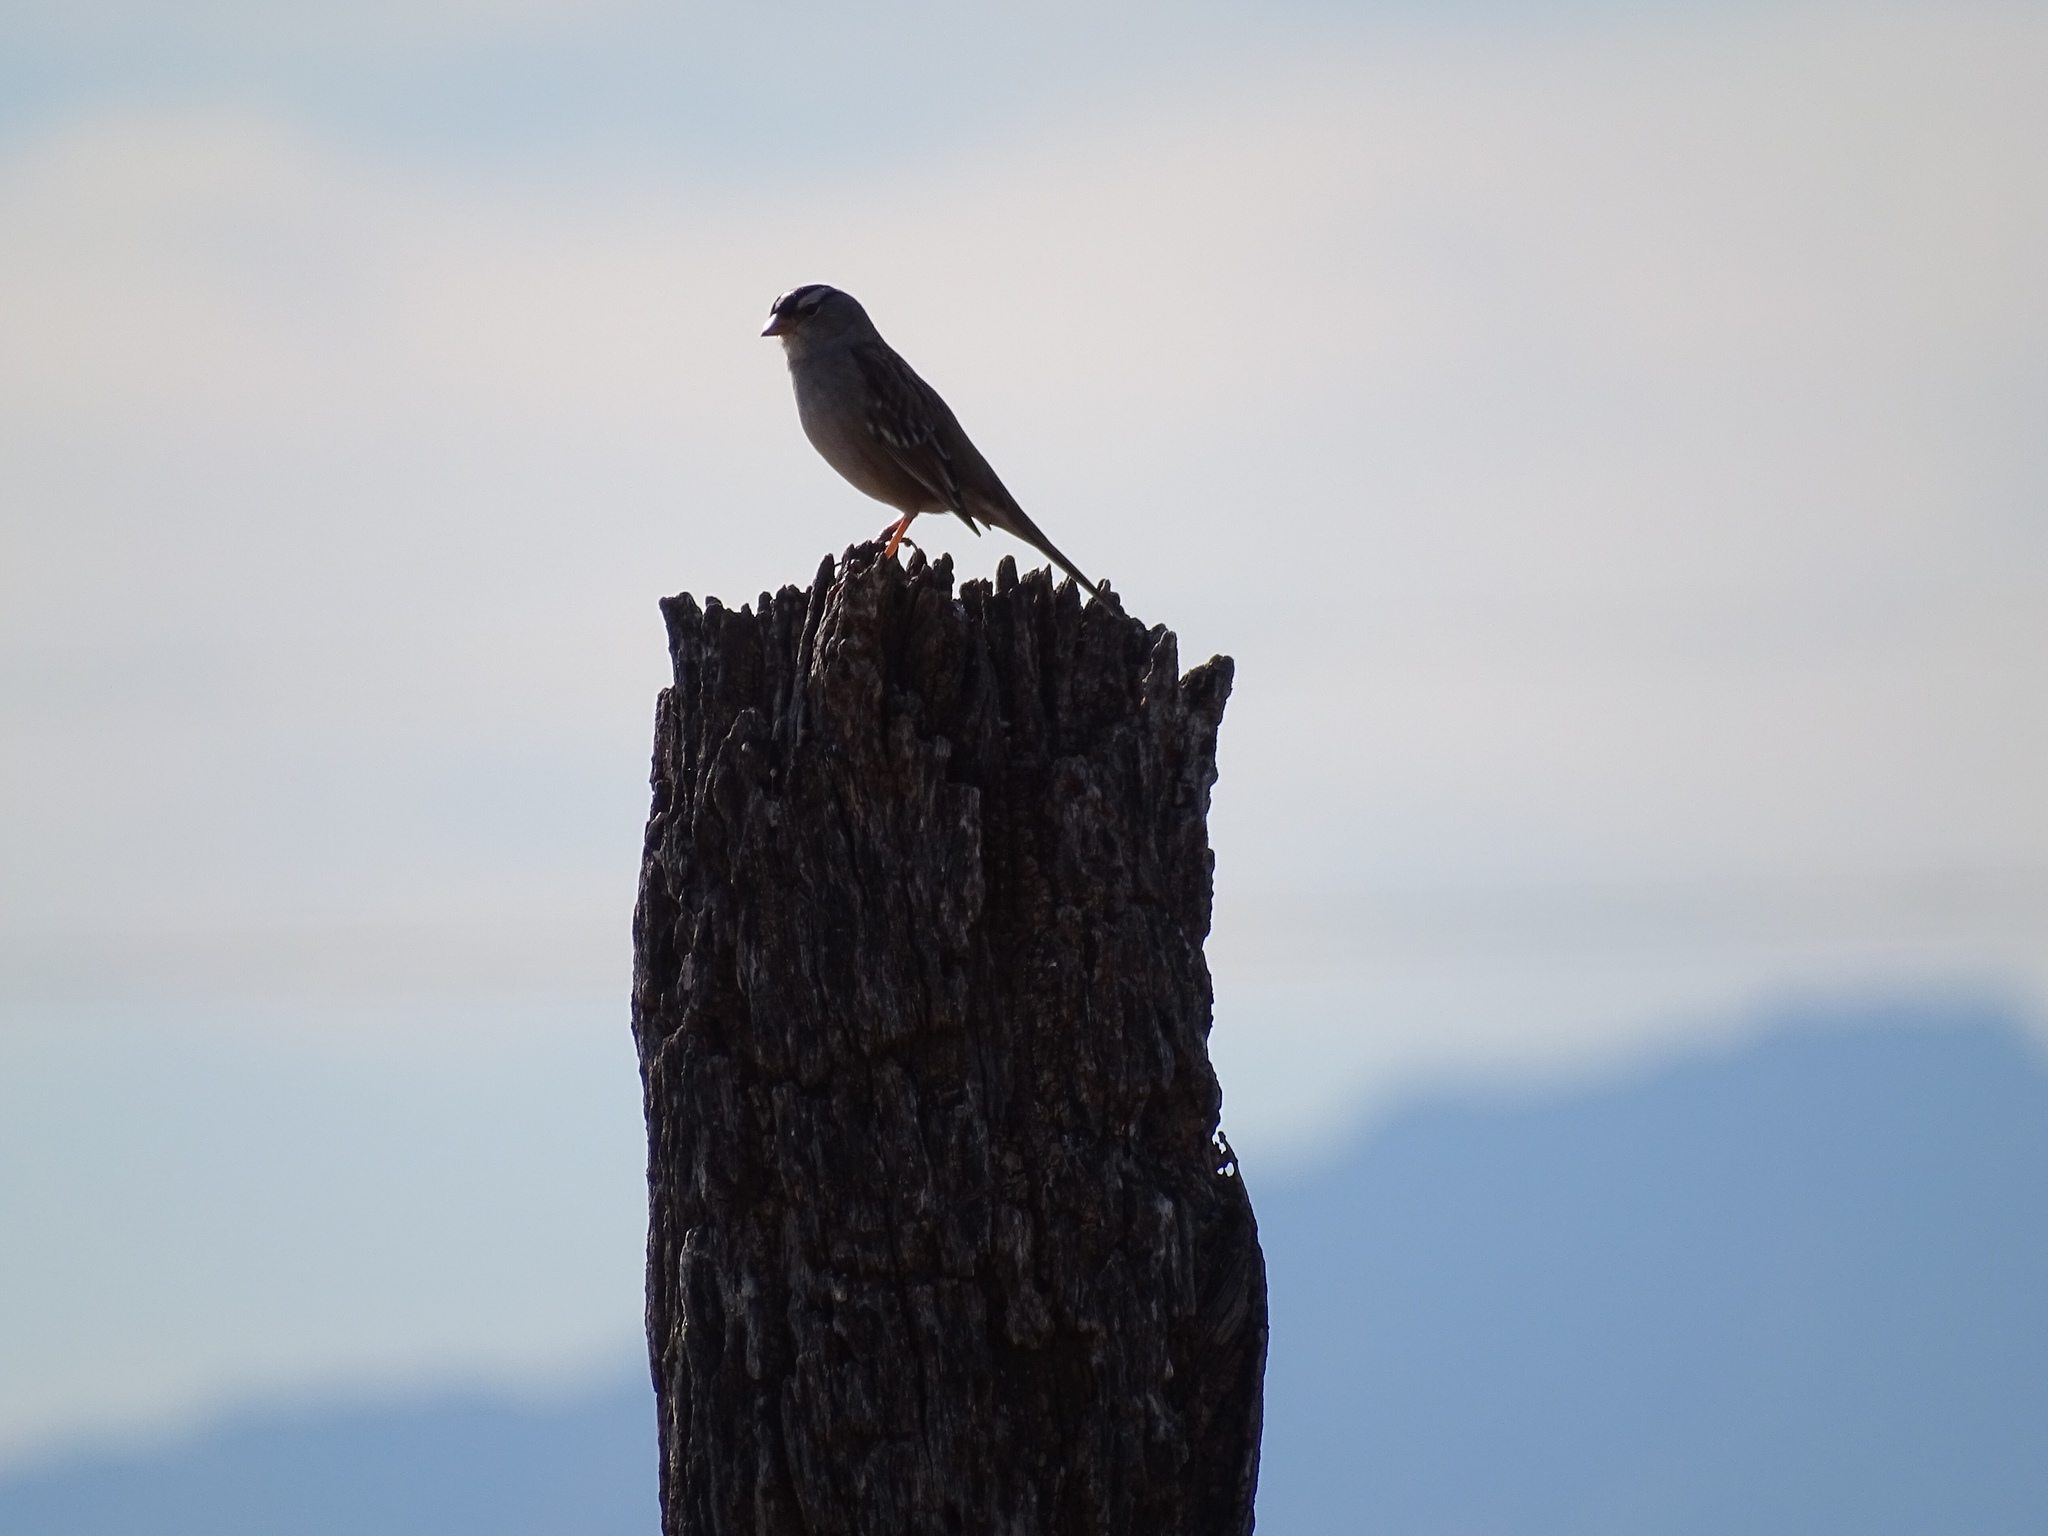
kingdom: Animalia
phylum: Chordata
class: Aves
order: Passeriformes
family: Passerellidae
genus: Zonotrichia
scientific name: Zonotrichia leucophrys
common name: White-crowned sparrow
